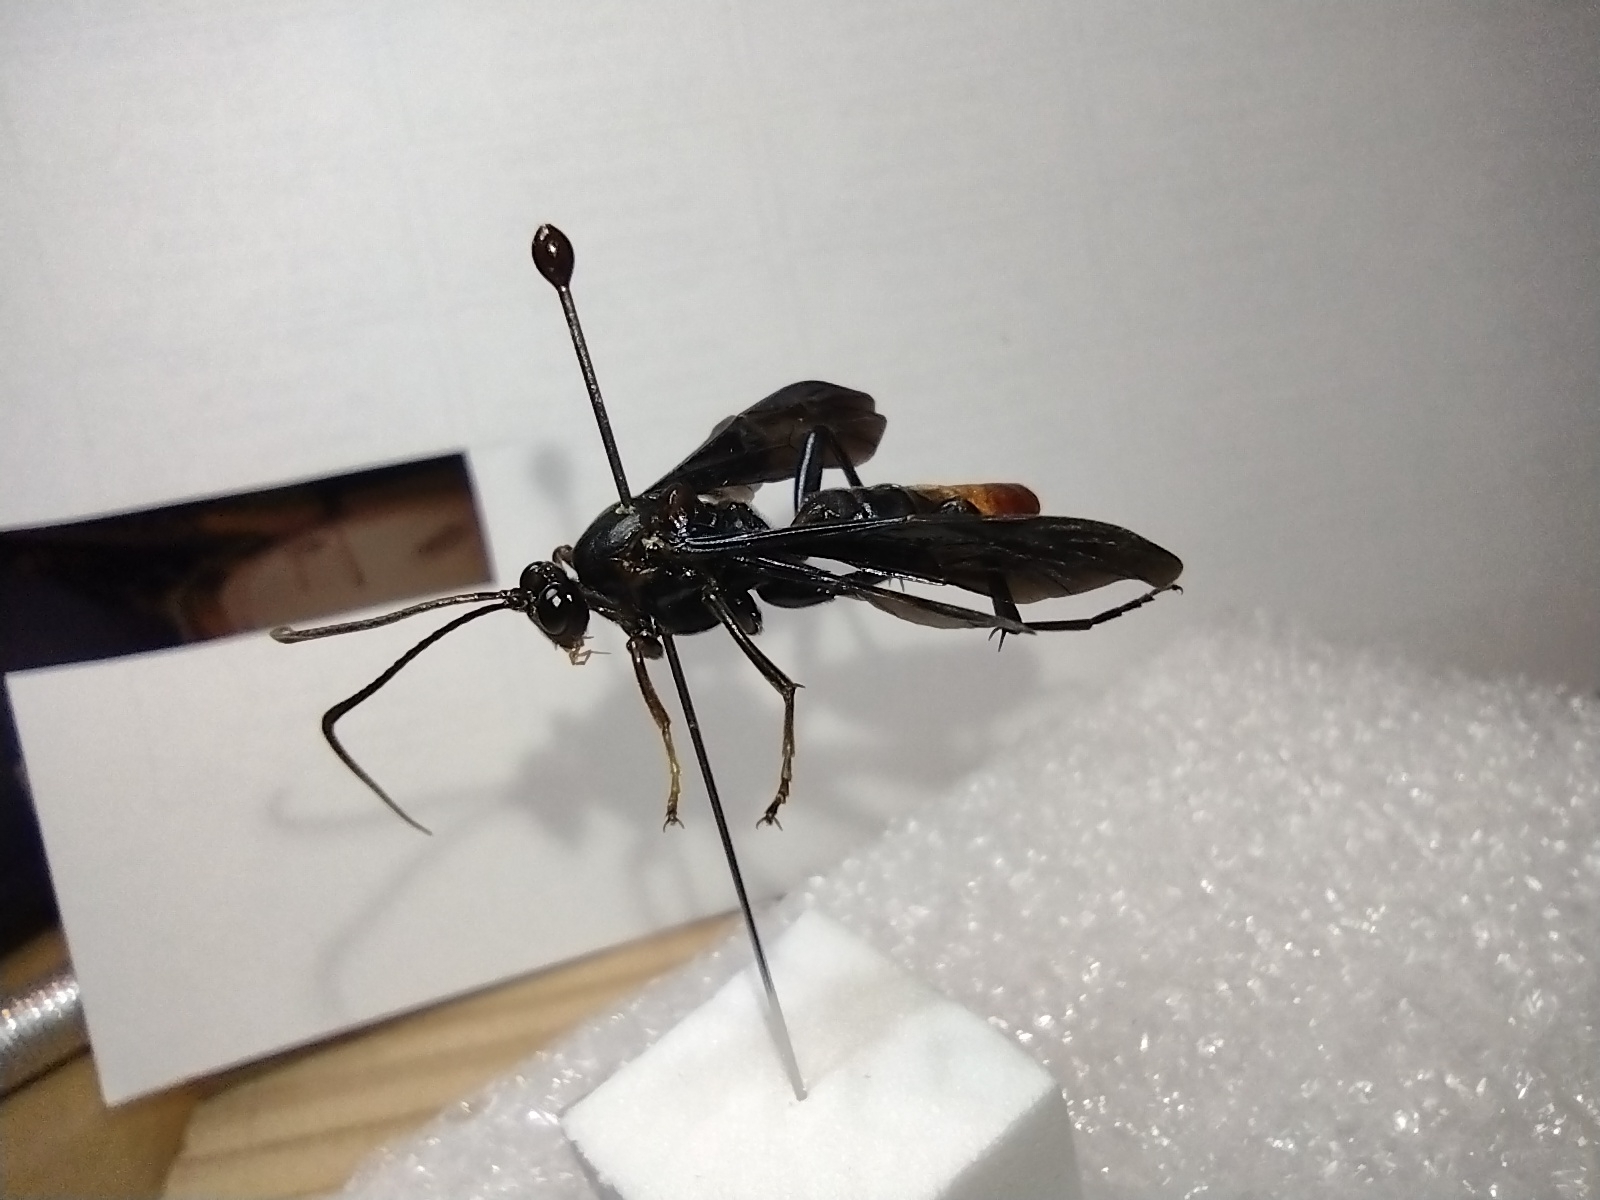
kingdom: Animalia
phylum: Arthropoda
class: Insecta
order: Hymenoptera
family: Ichneumonidae
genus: Saranaca
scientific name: Saranaca apicalis
